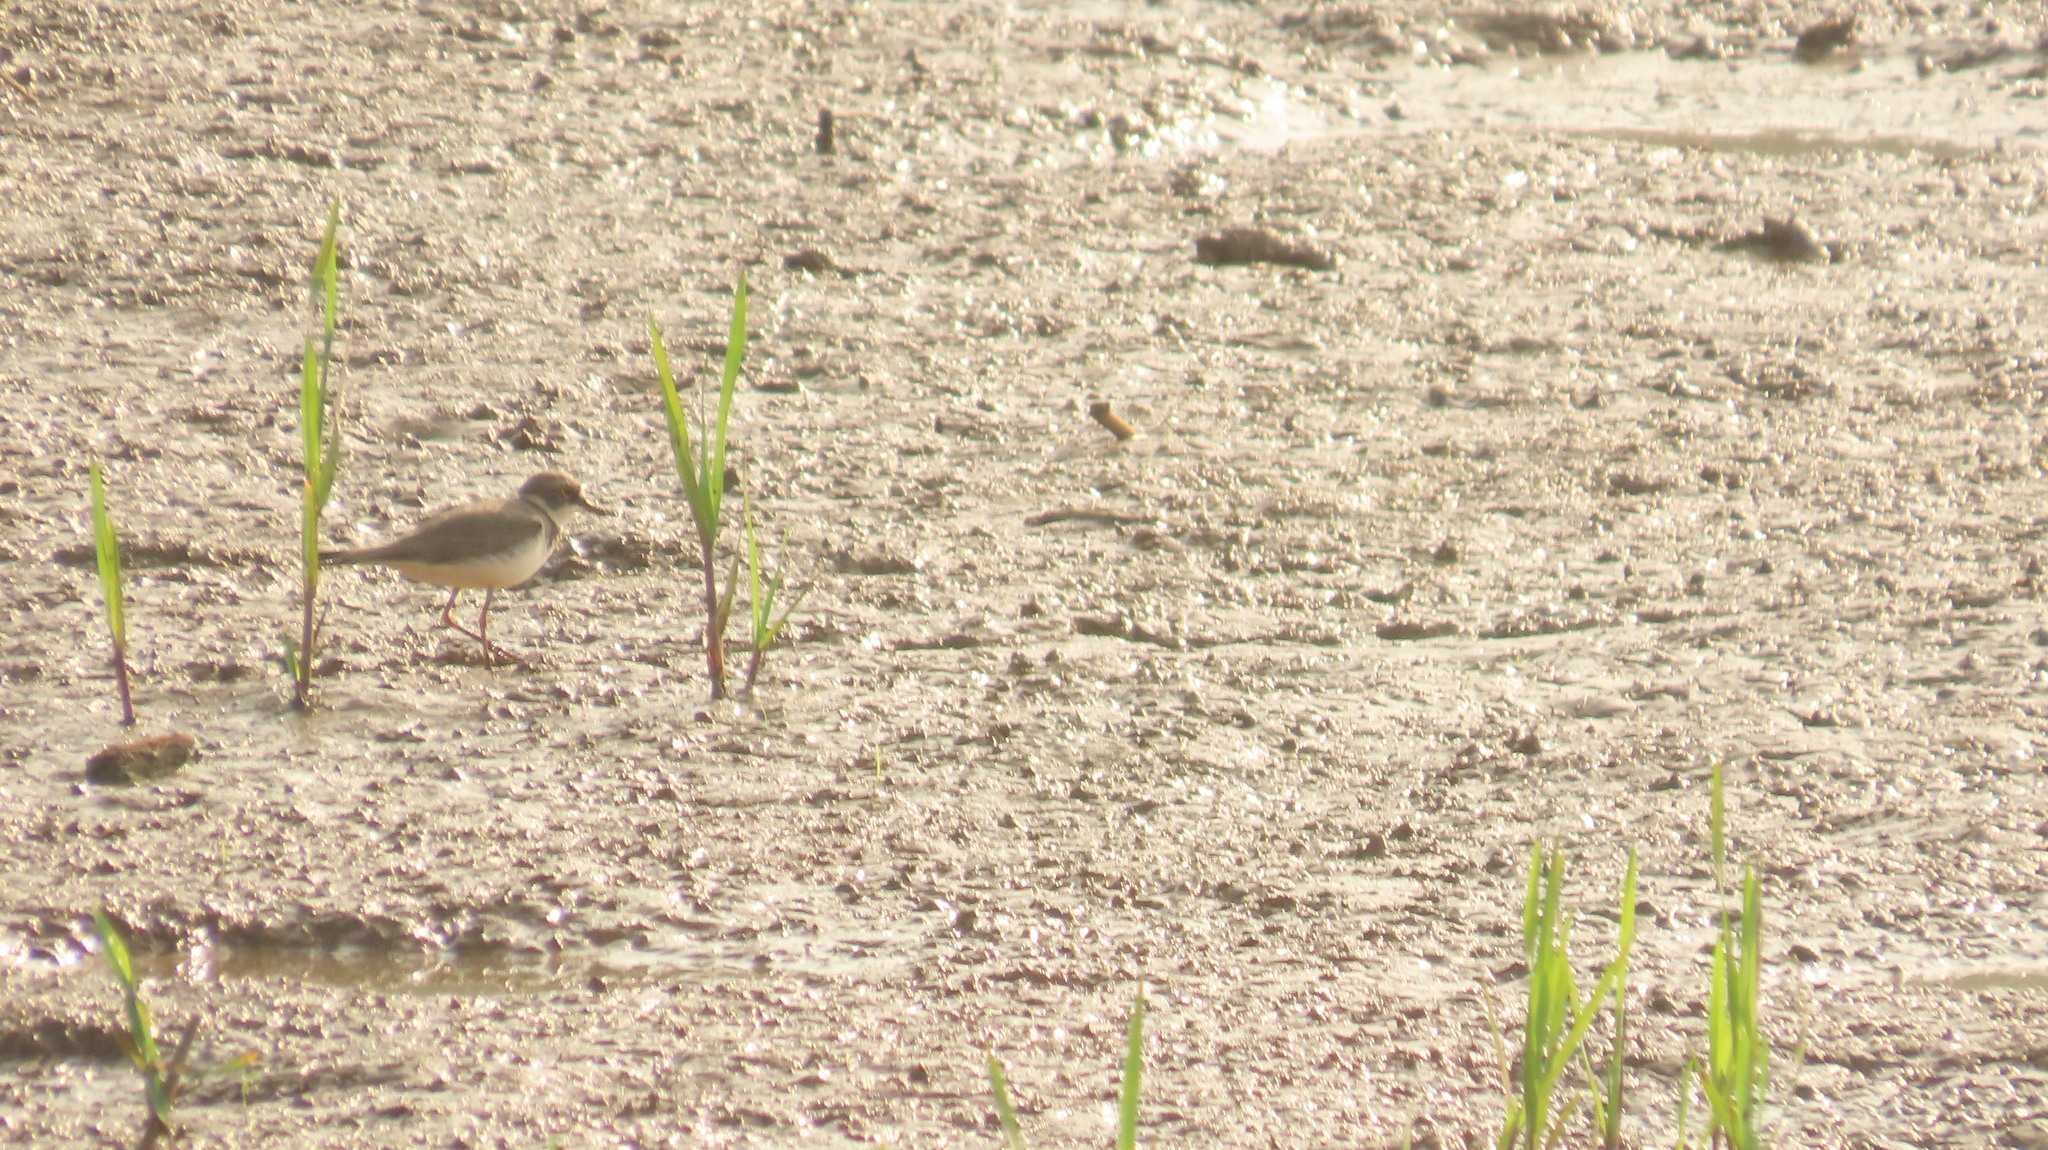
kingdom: Animalia
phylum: Chordata
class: Aves
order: Charadriiformes
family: Charadriidae
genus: Charadrius
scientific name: Charadrius dubius
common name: Little ringed plover
